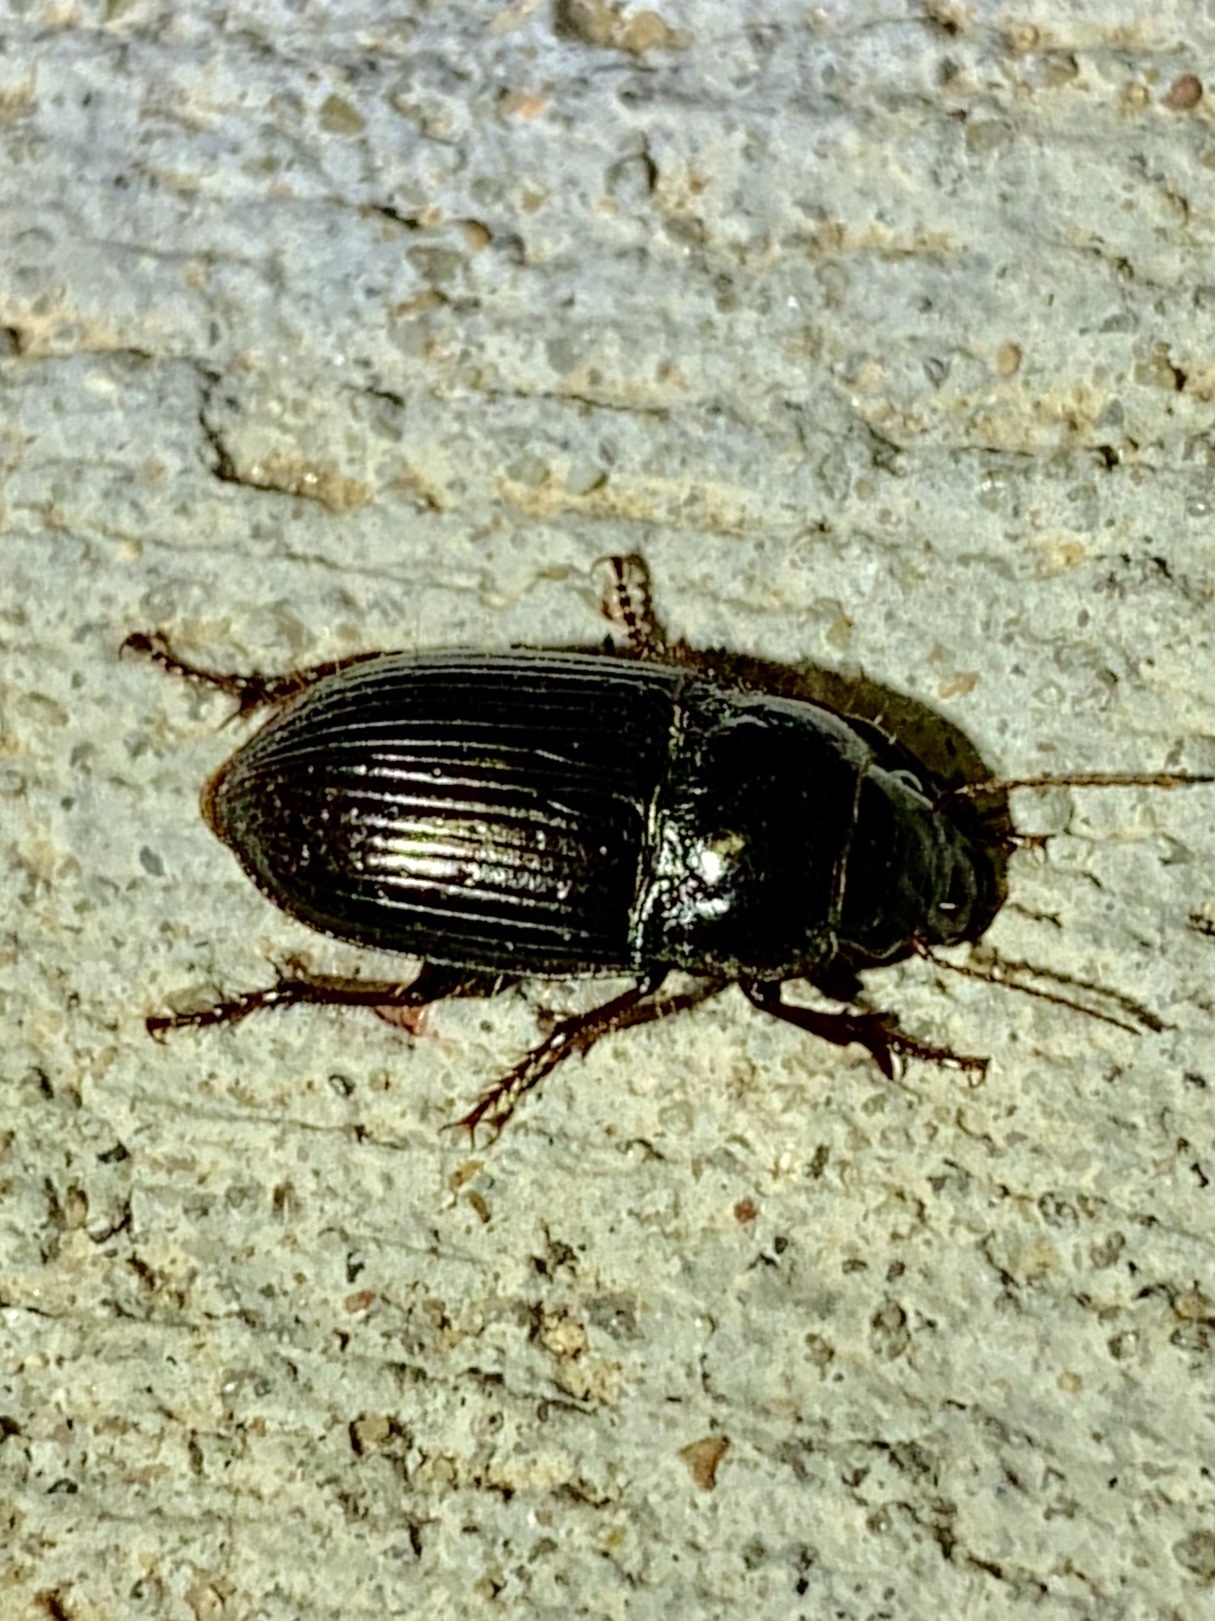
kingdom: Animalia
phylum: Arthropoda
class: Insecta
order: Coleoptera
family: Carabidae
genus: Euryderus
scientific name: Euryderus grossus
